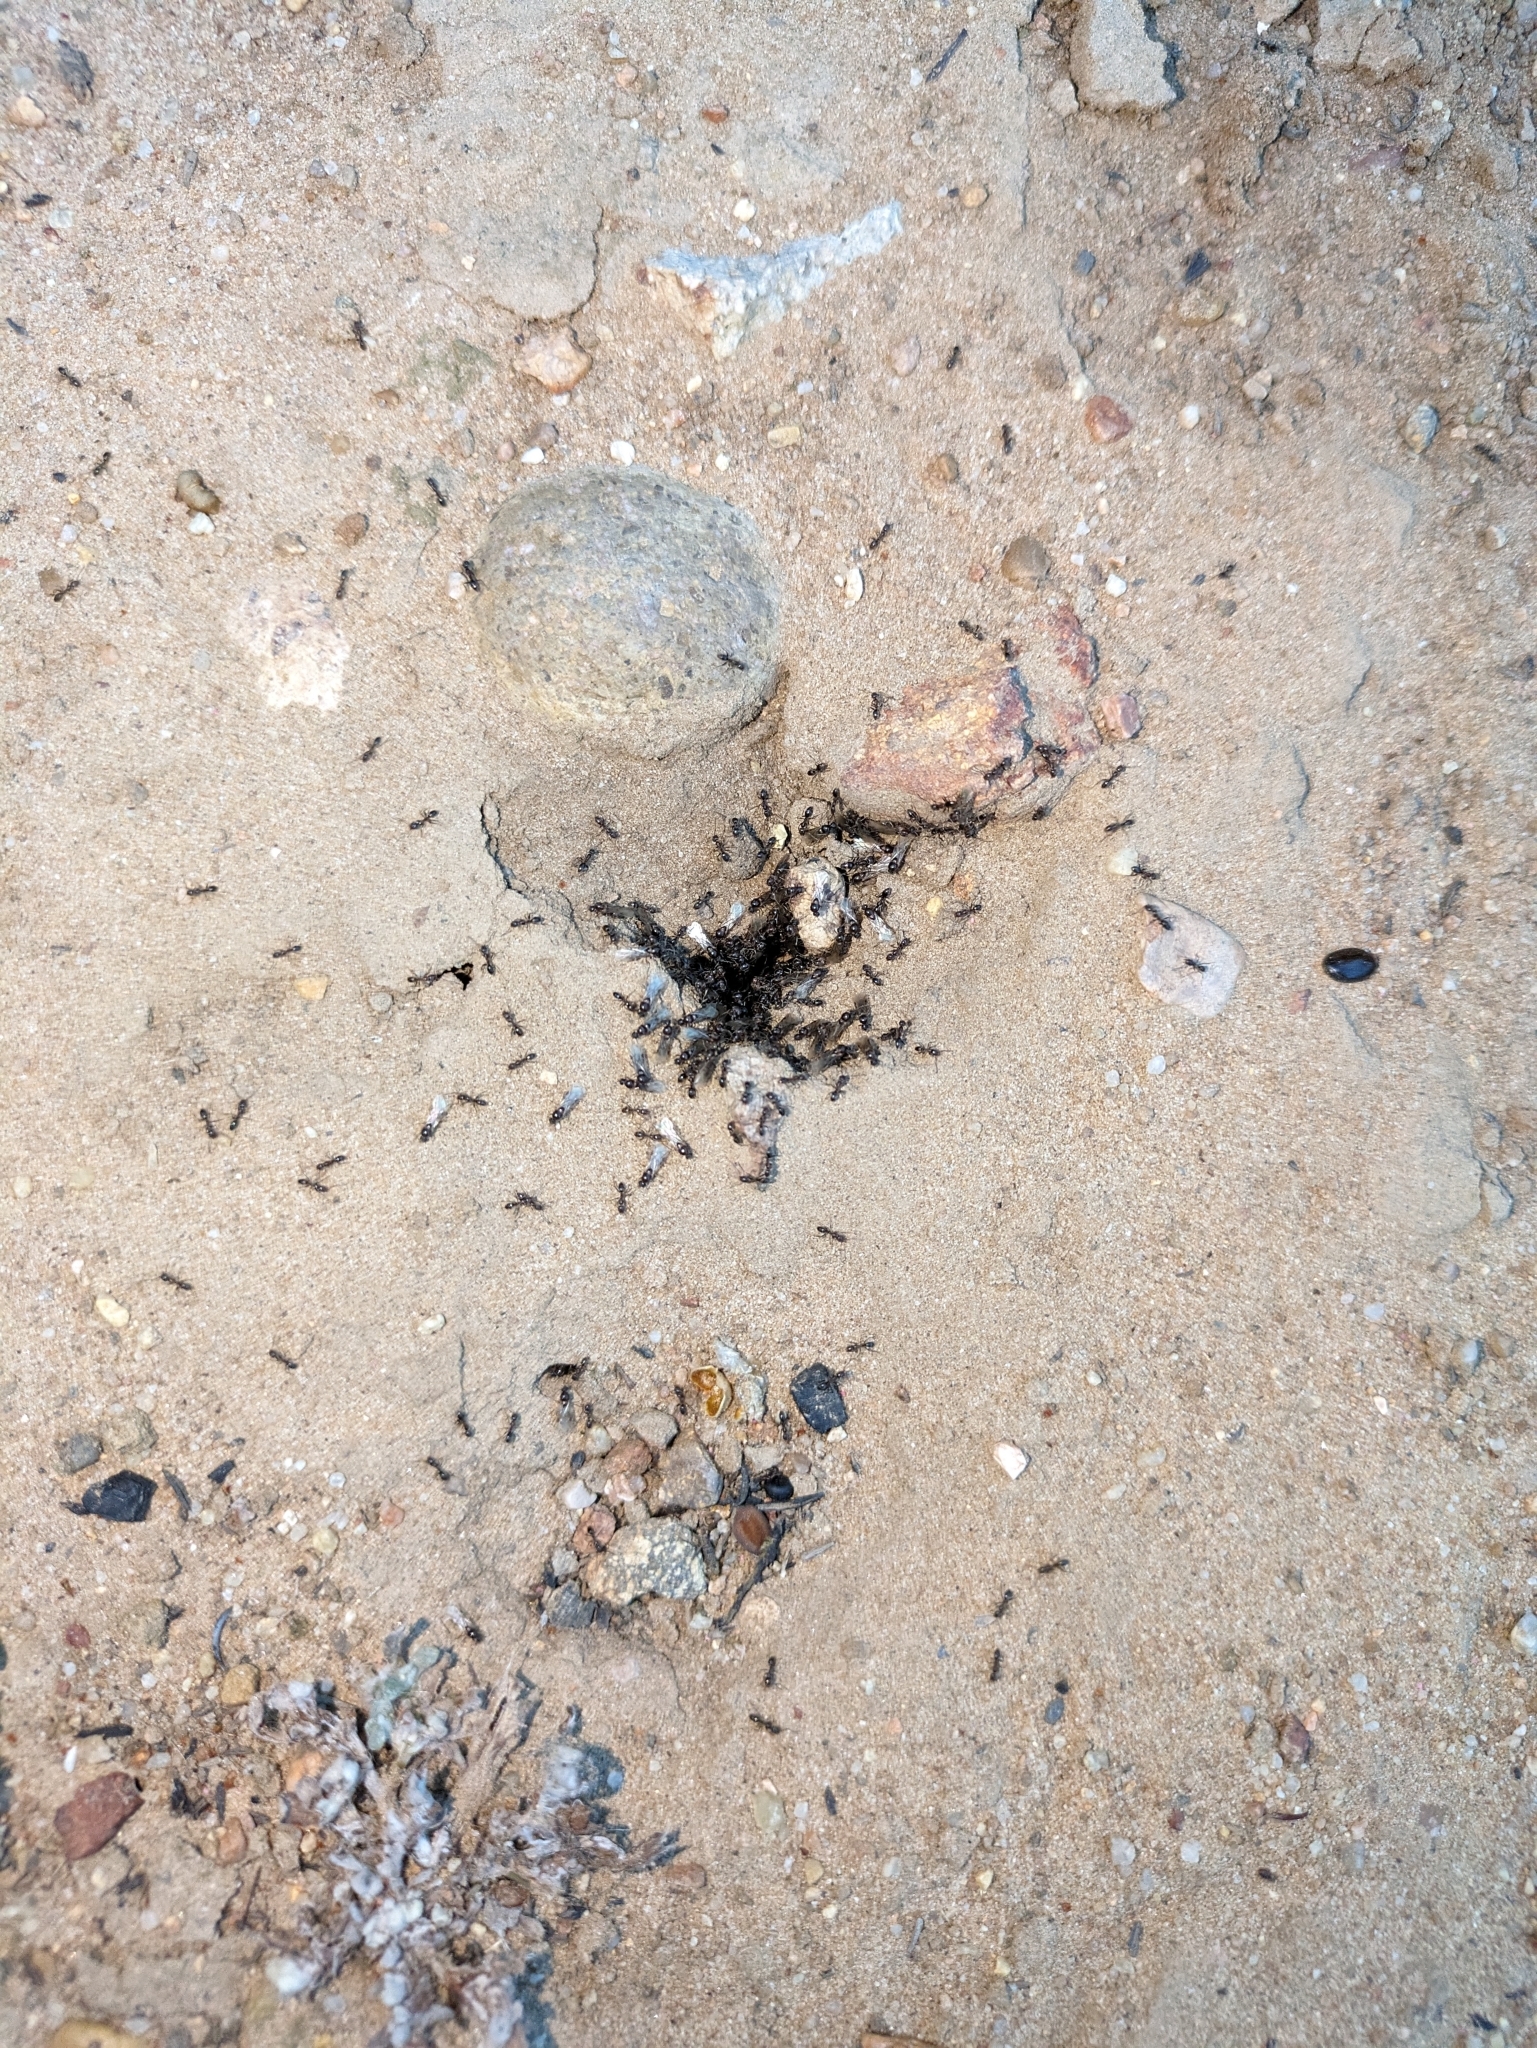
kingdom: Animalia
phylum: Arthropoda
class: Insecta
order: Hymenoptera
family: Formicidae
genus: Linepithema
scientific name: Linepithema humile
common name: Argentine ant
